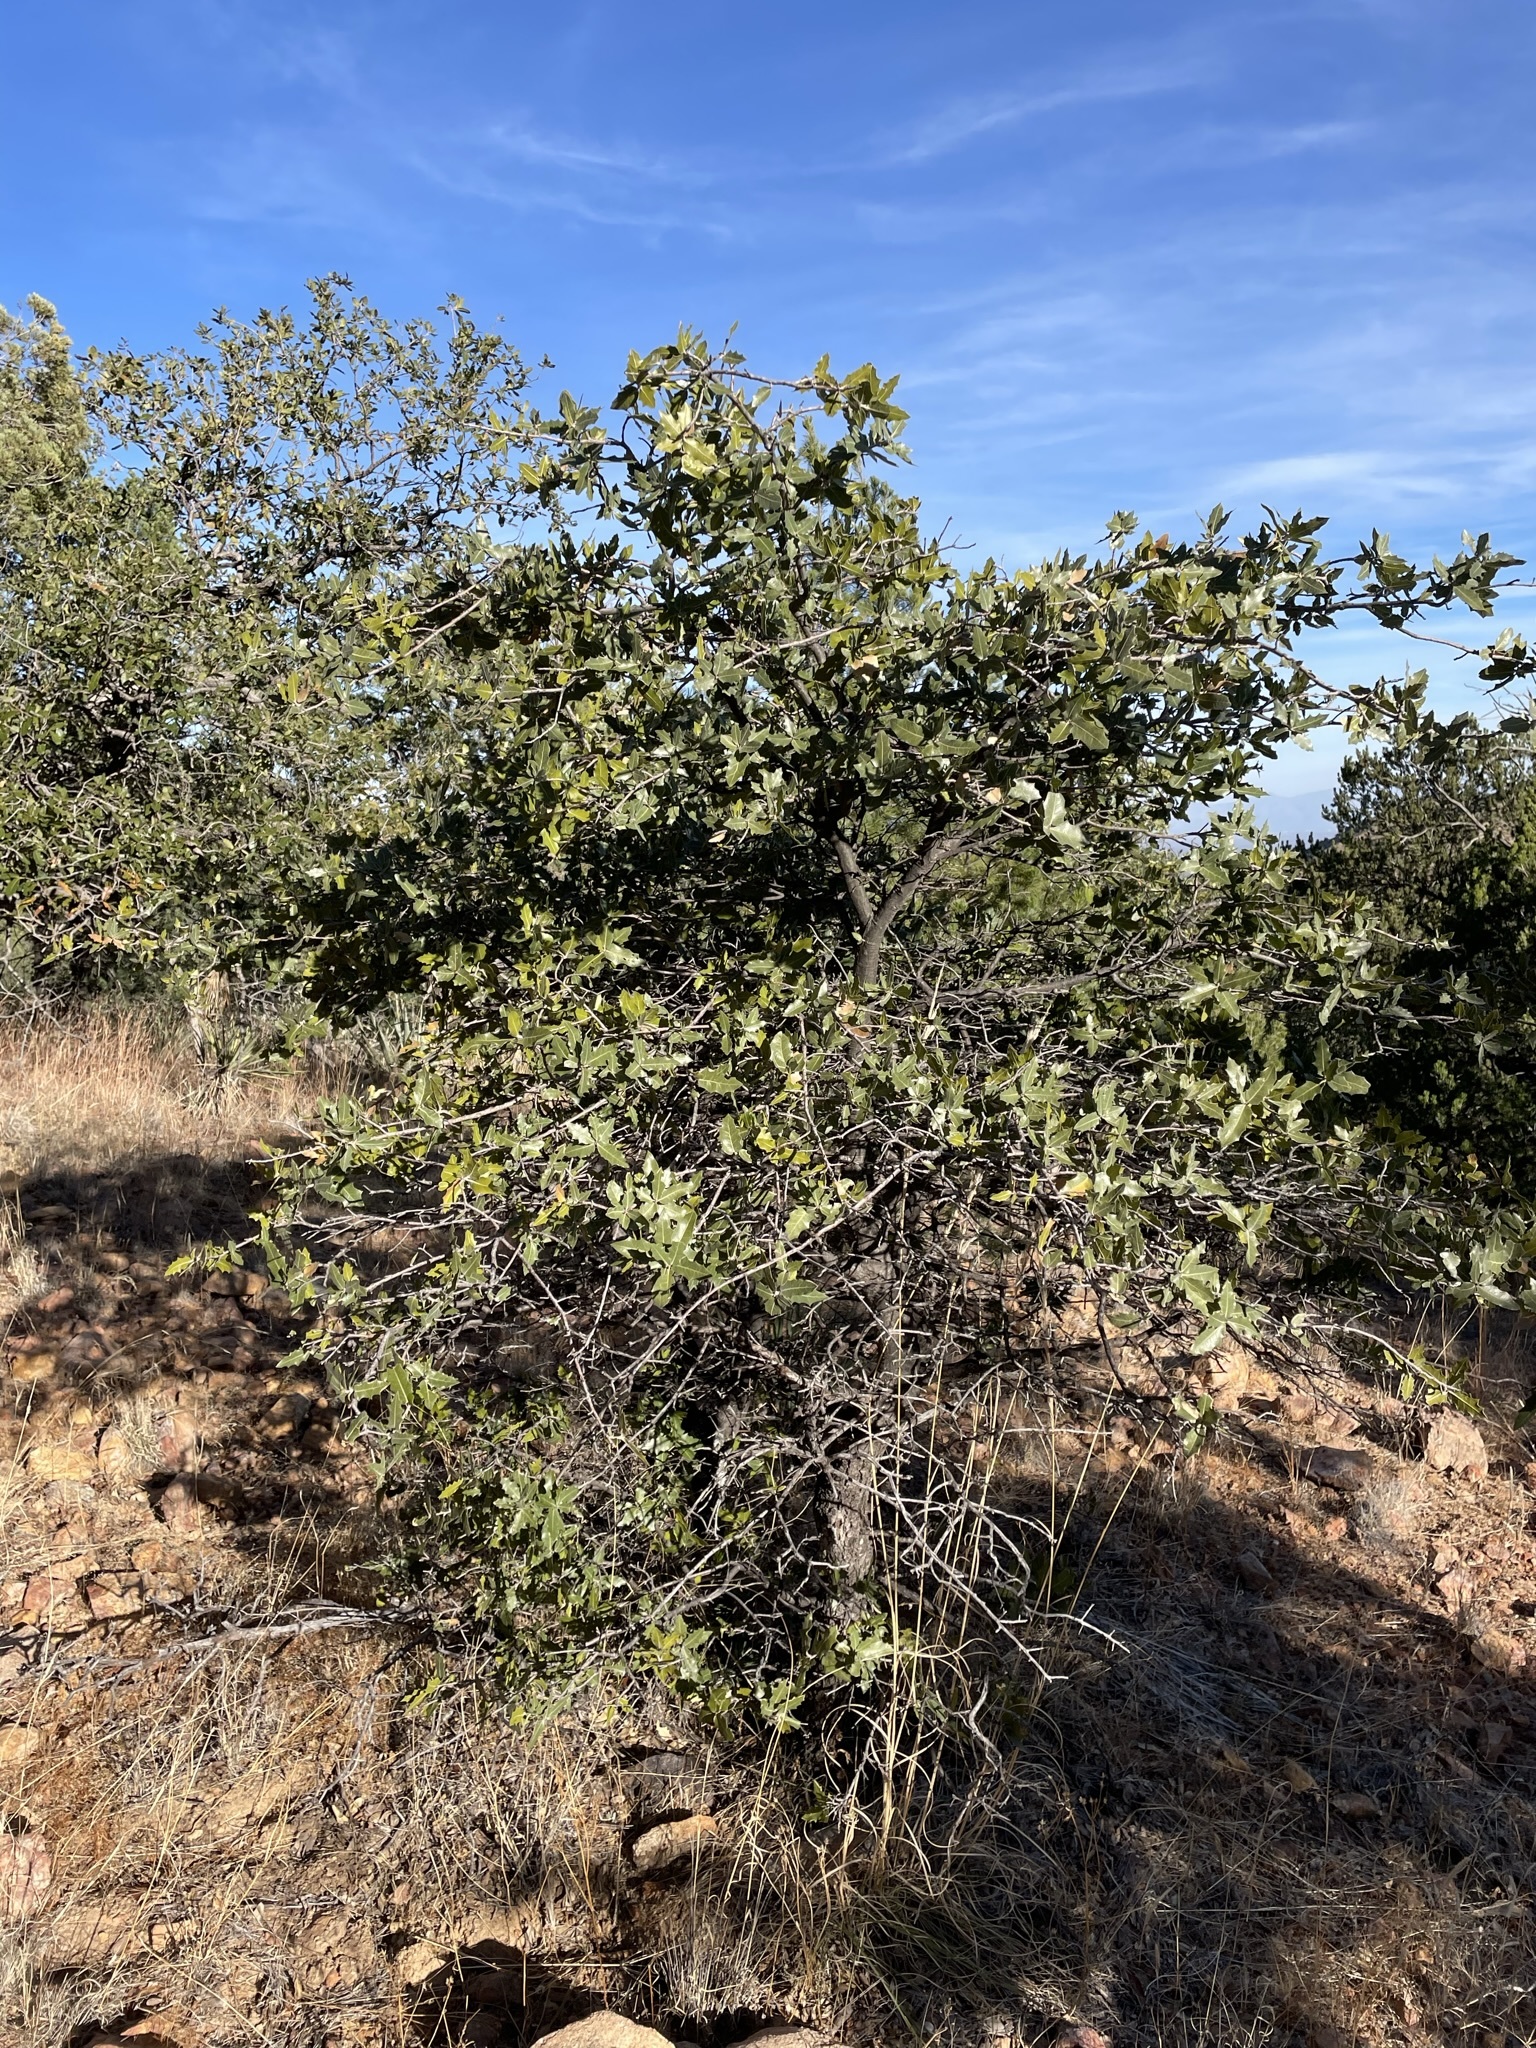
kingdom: Plantae
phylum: Tracheophyta
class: Magnoliopsida
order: Fagales
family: Fagaceae
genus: Quercus
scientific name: Quercus emoryi
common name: Emory oak
